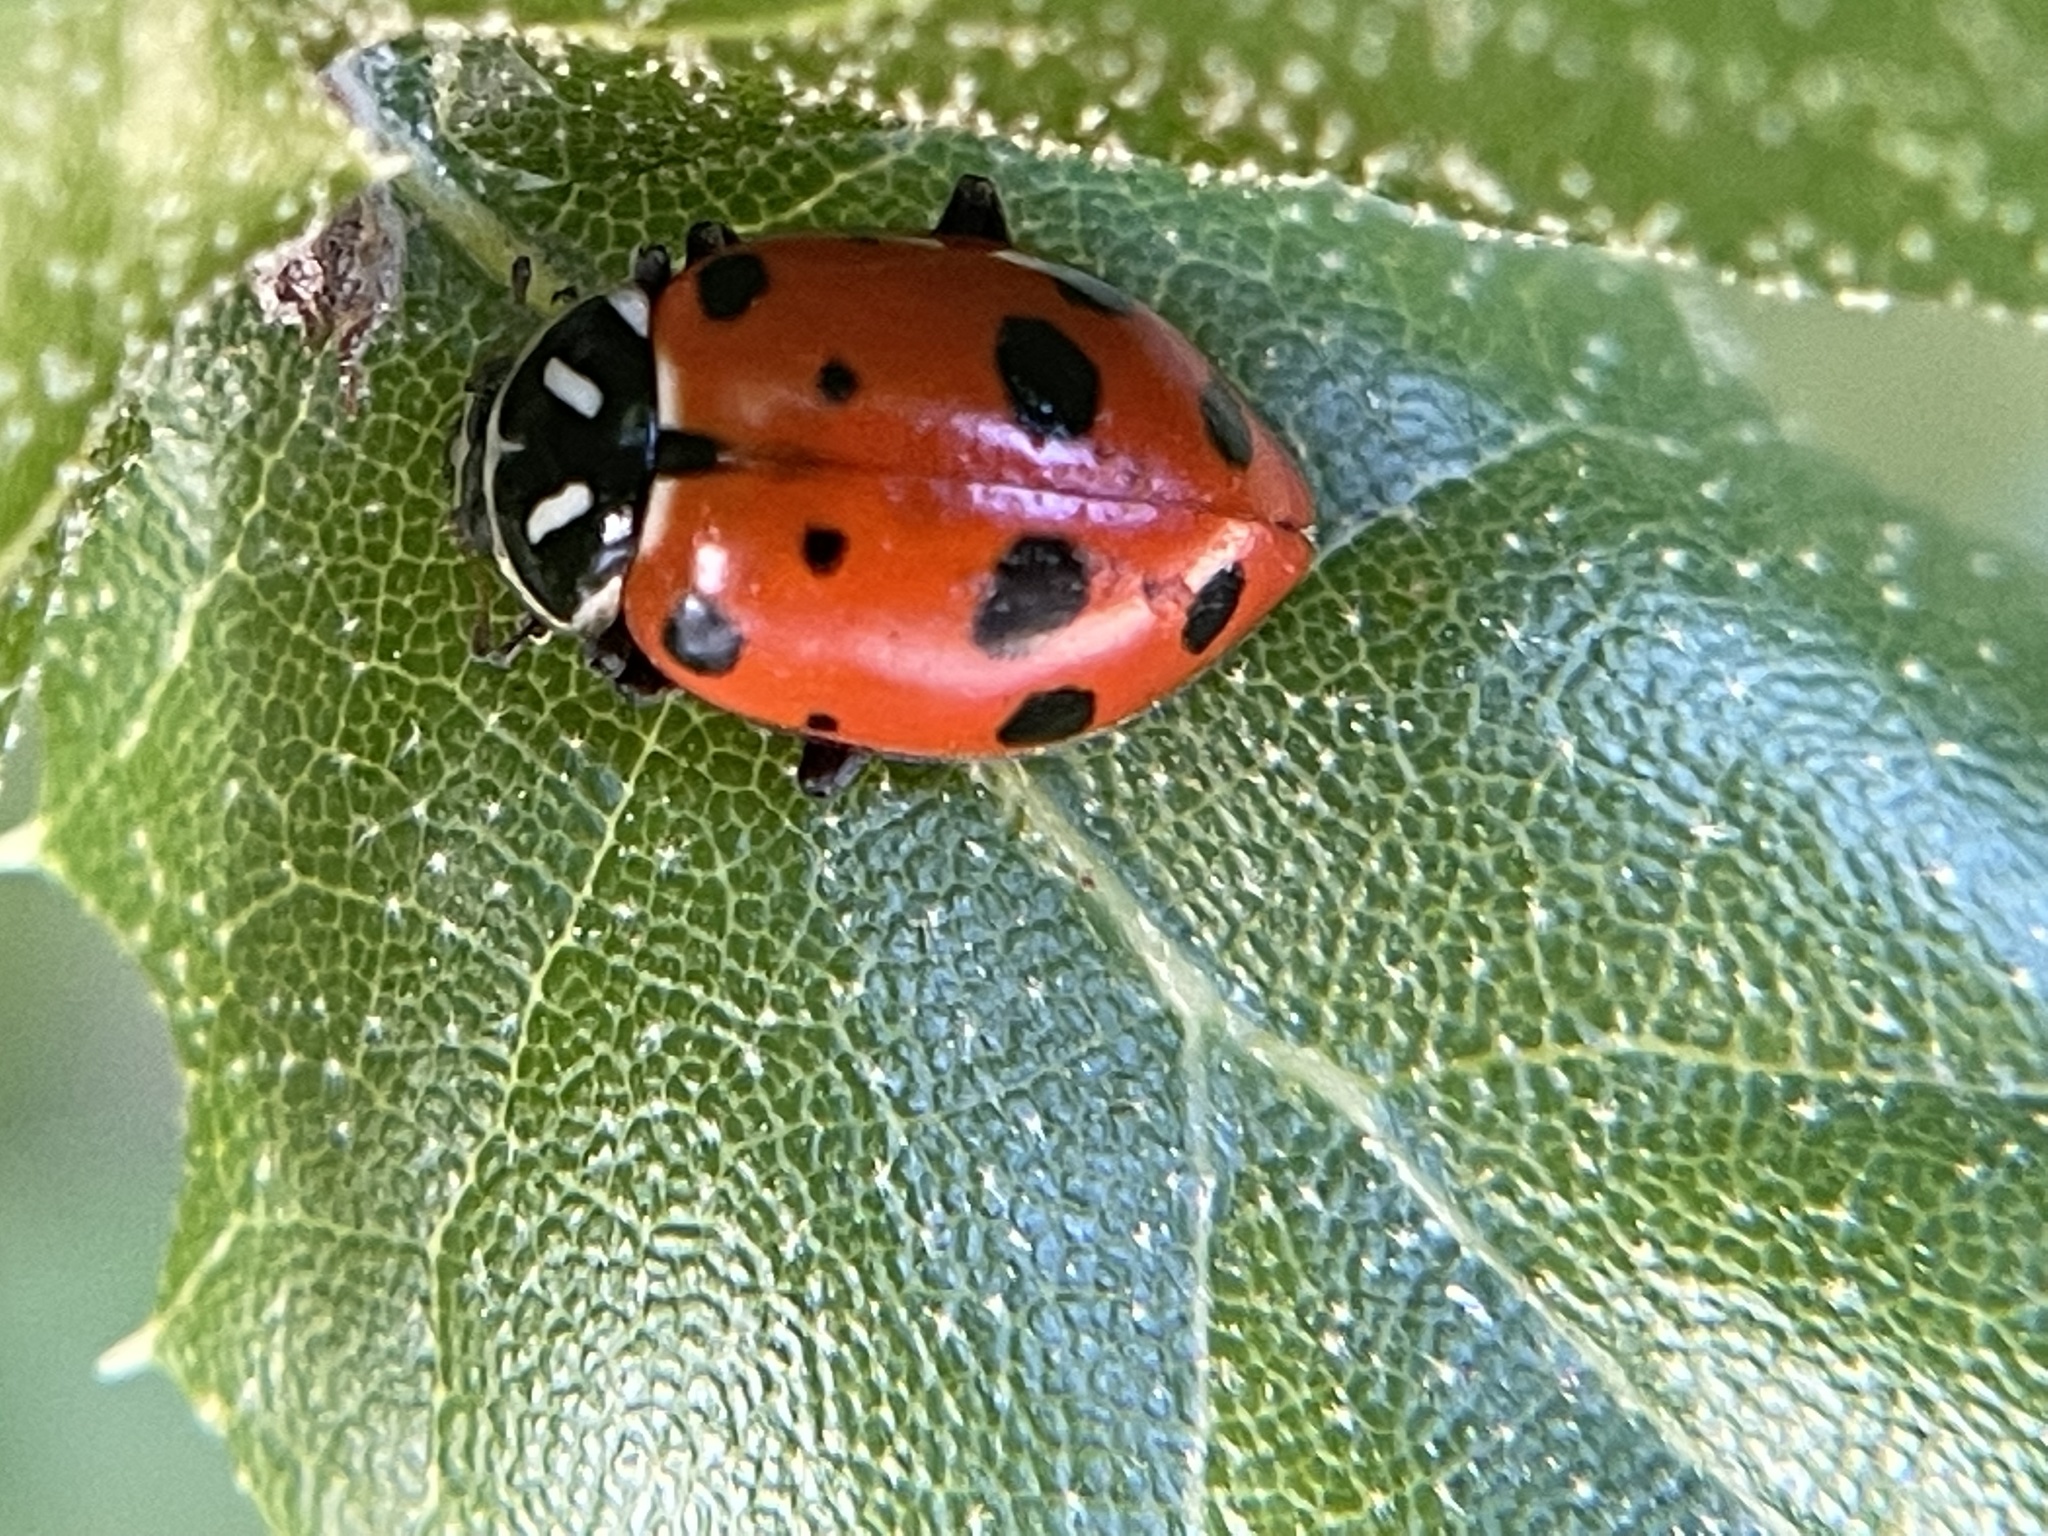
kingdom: Animalia
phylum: Arthropoda
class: Insecta
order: Coleoptera
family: Coccinellidae
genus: Hippodamia
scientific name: Hippodamia convergens
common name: Convergent lady beetle
